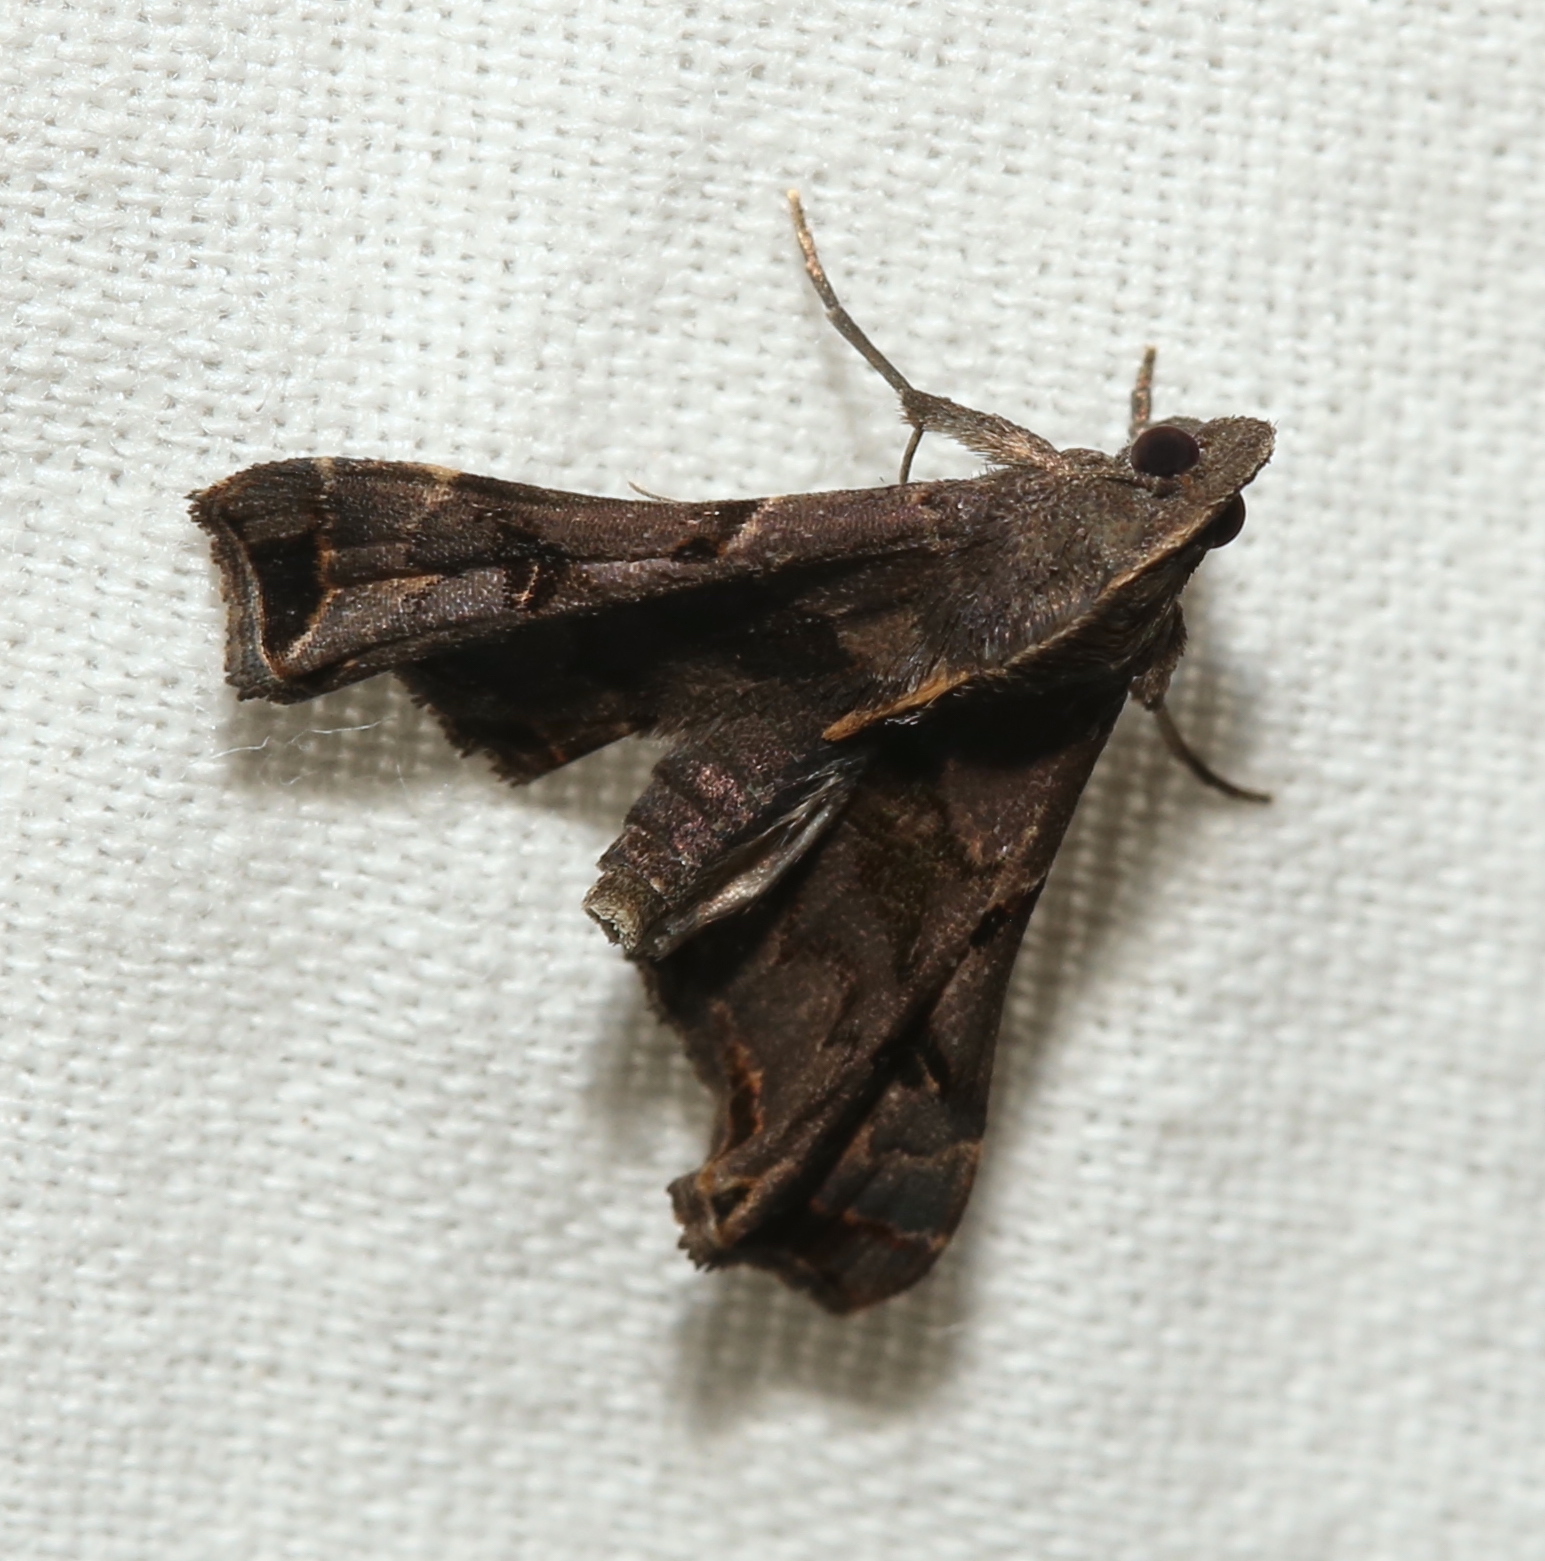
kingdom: Animalia
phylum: Arthropoda
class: Insecta
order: Lepidoptera
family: Erebidae
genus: Palthis
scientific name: Palthis asopialis
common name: Faint-spotted palthis moth
